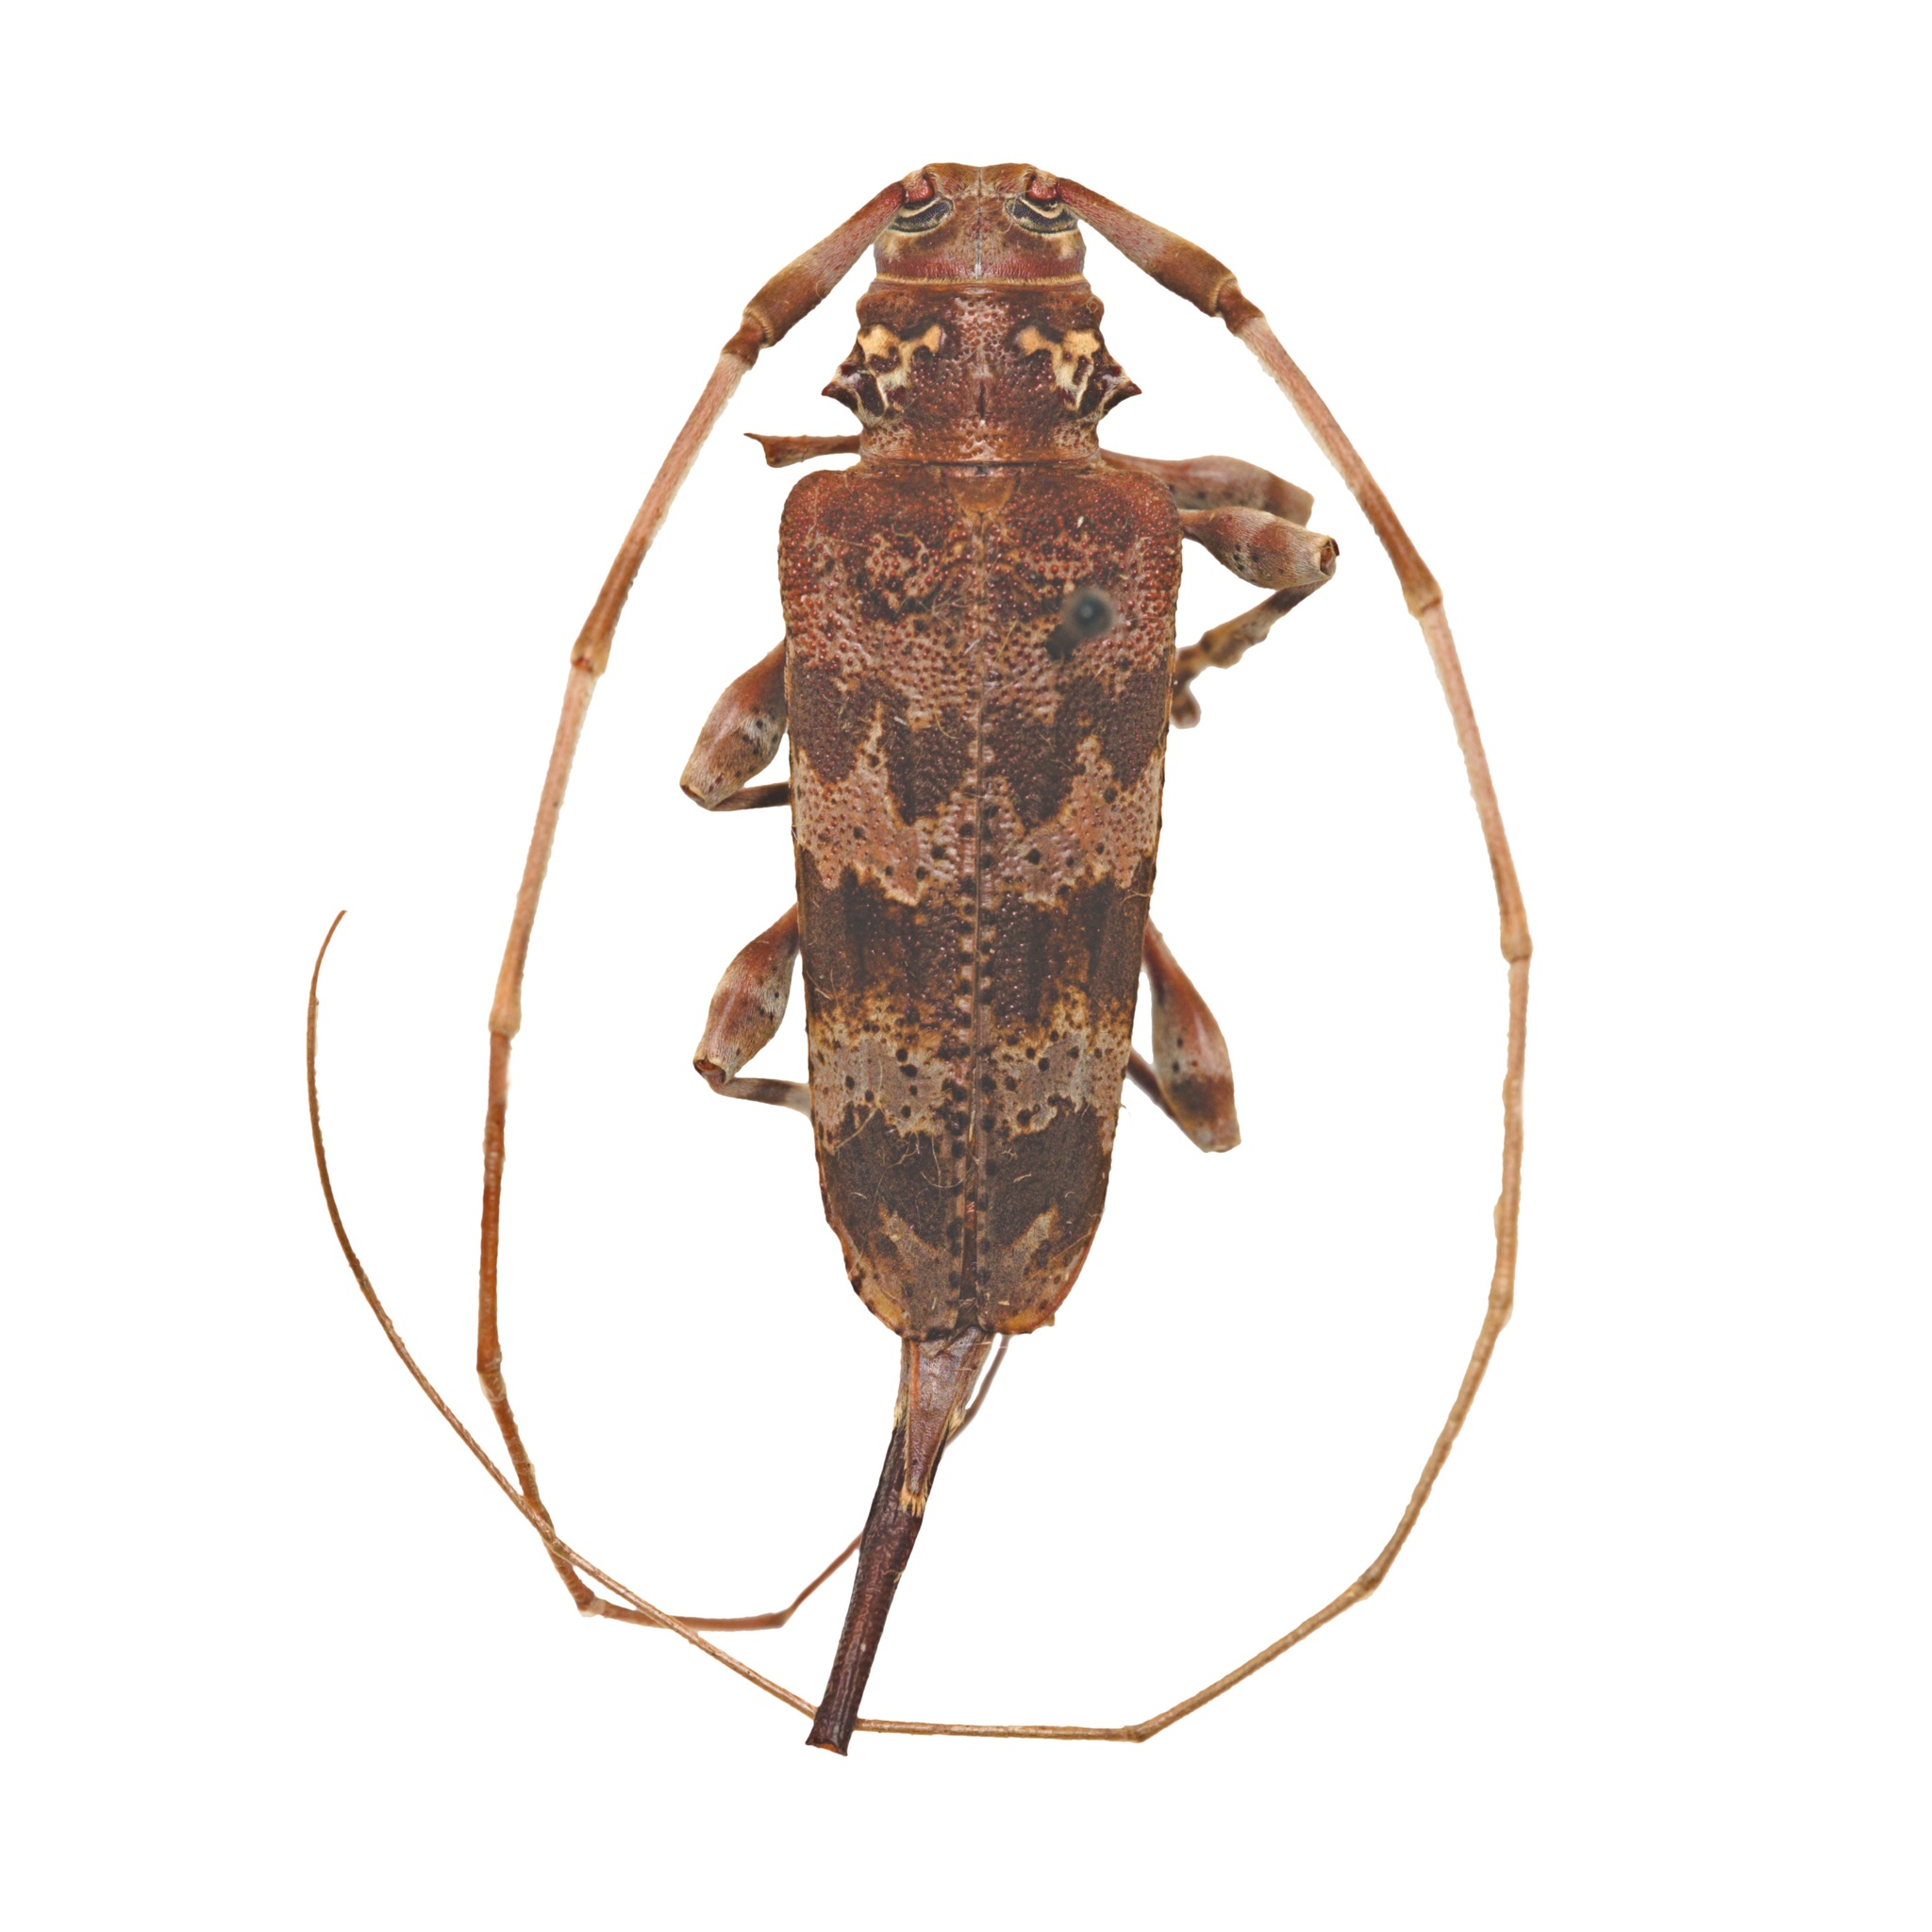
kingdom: Animalia
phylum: Arthropoda
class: Insecta
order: Coleoptera
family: Cerambycidae
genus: Acanthocinus
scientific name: Acanthocinus spectabilis
